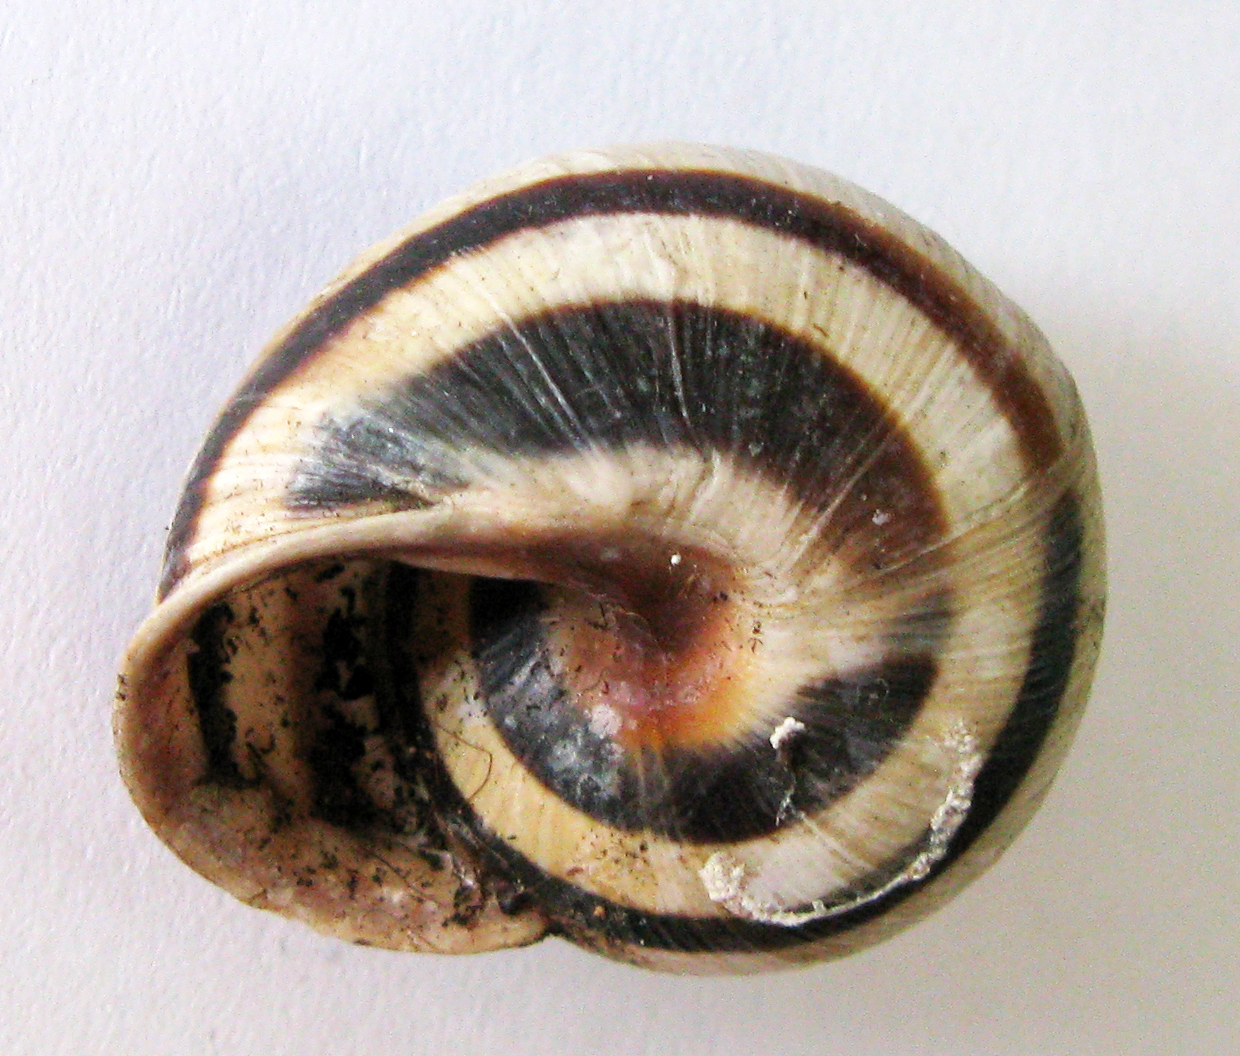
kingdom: Animalia
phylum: Mollusca
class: Gastropoda
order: Stylommatophora
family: Helicidae
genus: Caucasotachea
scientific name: Caucasotachea vindobonensis
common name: European helicid land snail
